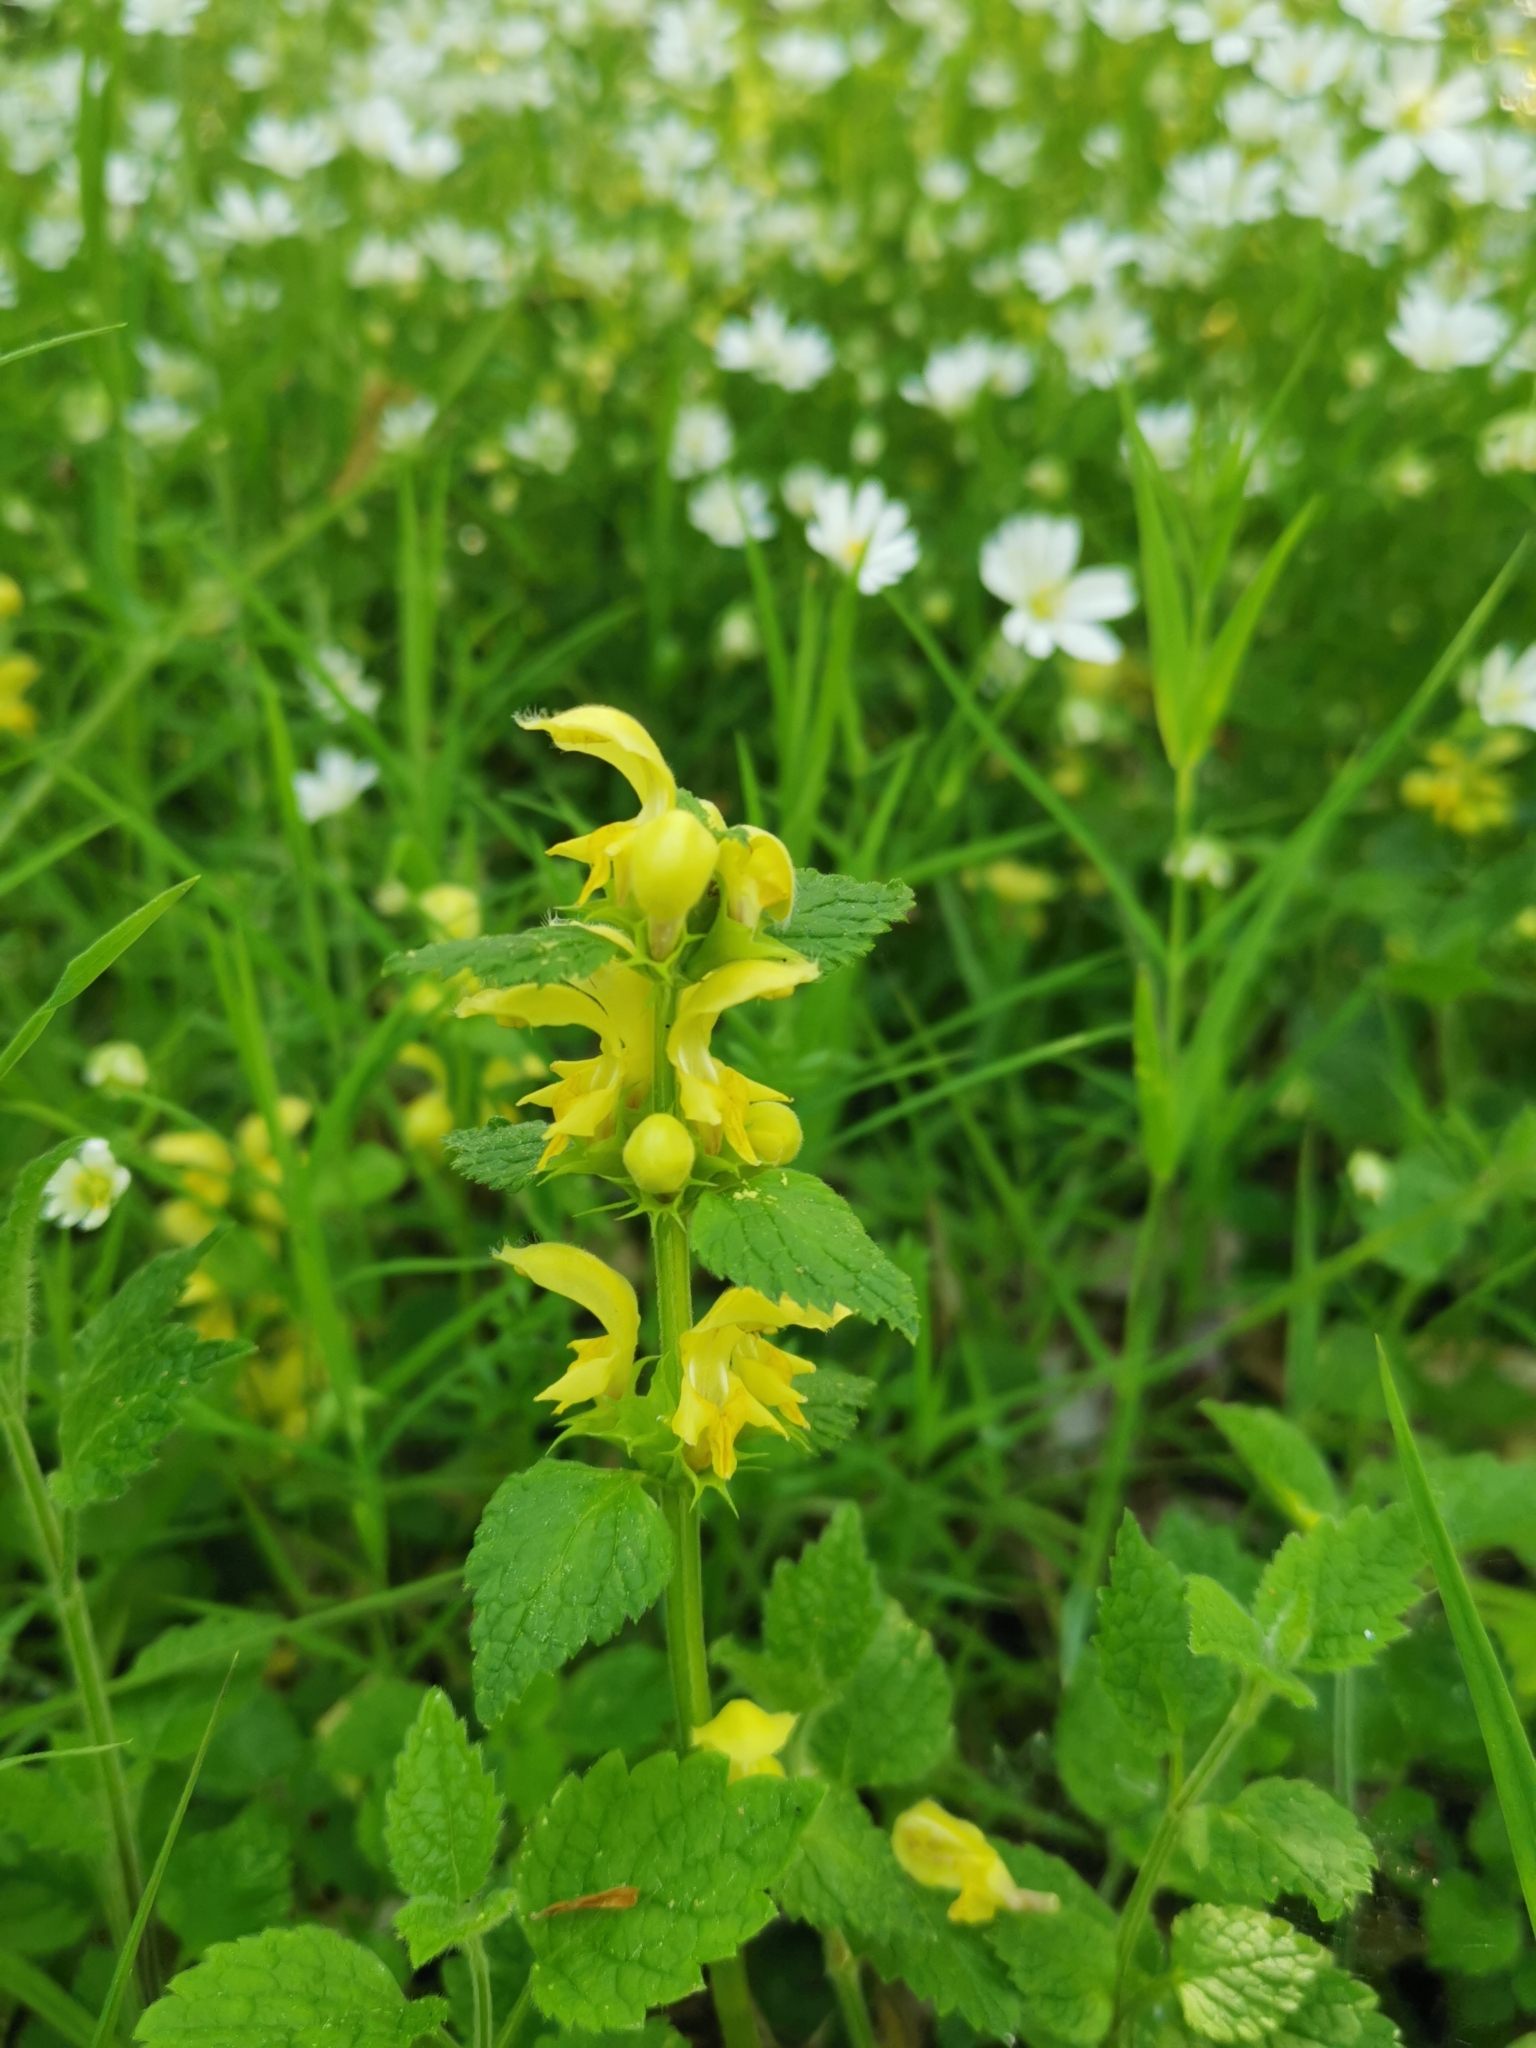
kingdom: Plantae
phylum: Tracheophyta
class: Magnoliopsida
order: Lamiales
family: Lamiaceae
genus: Lamium
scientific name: Lamium galeobdolon
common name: Yellow archangel
